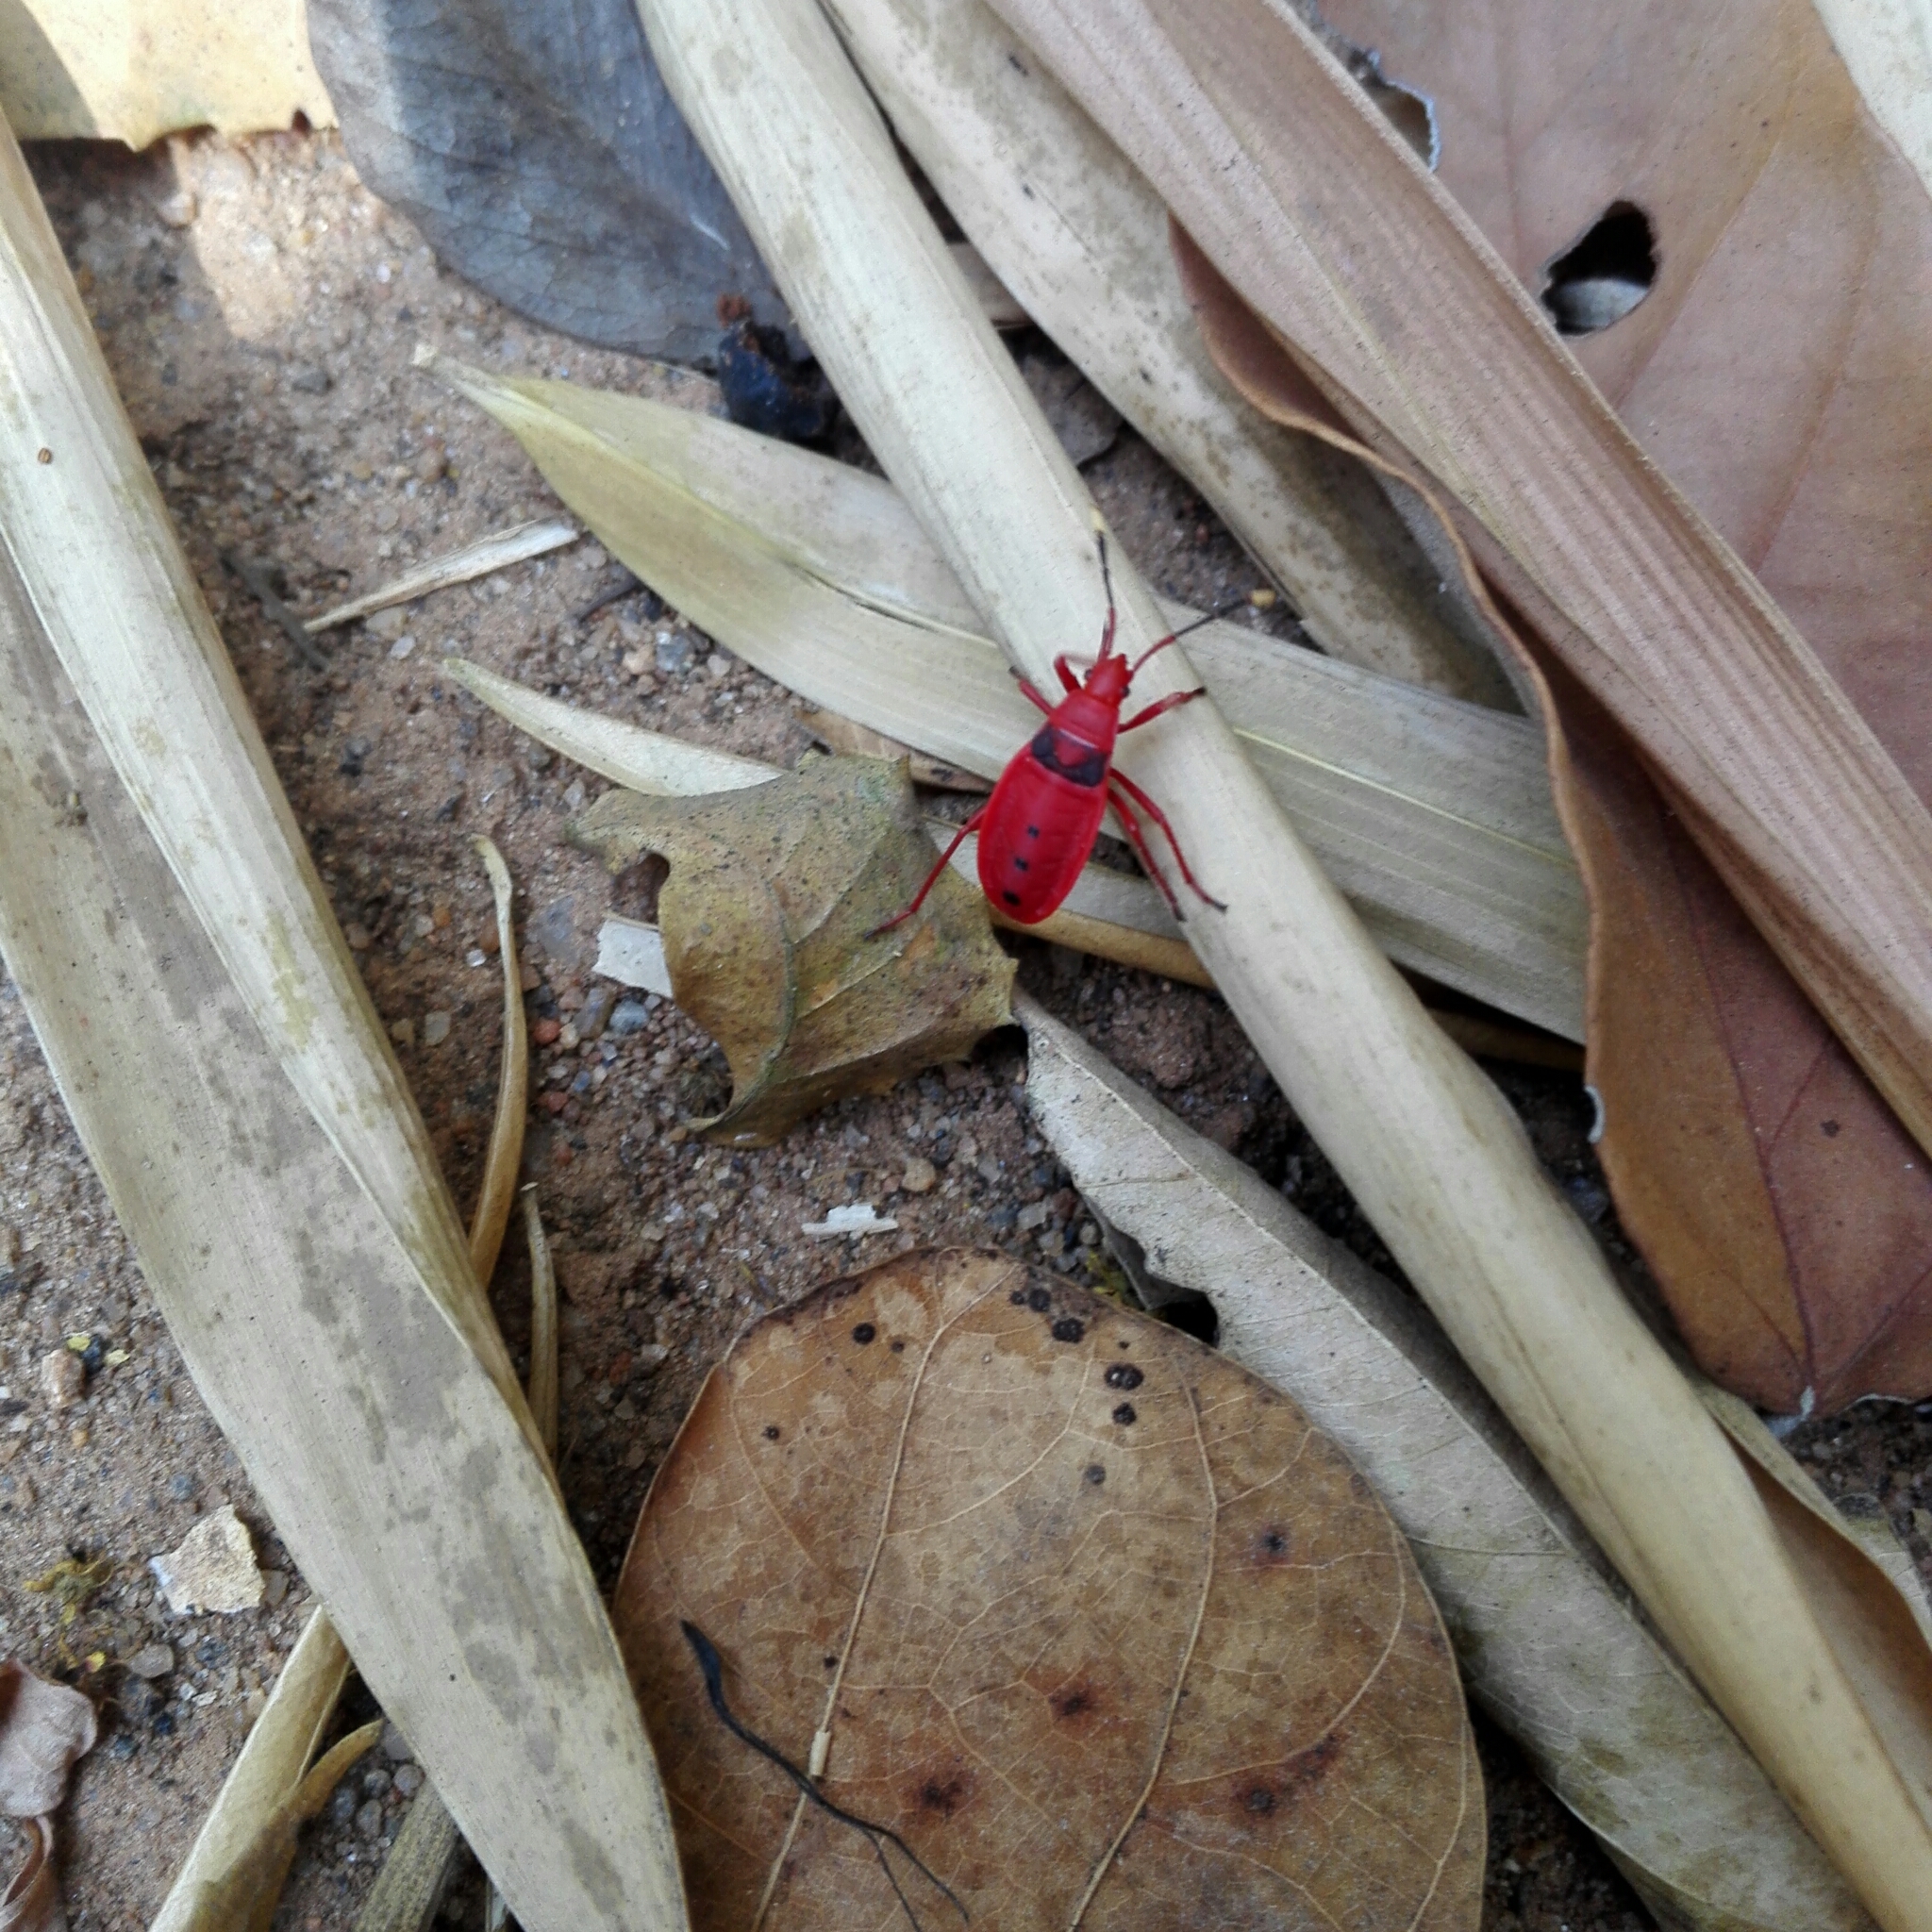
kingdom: Animalia
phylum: Arthropoda
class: Insecta
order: Hemiptera
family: Pyrrhocoridae
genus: Probergrothius
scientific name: Probergrothius
